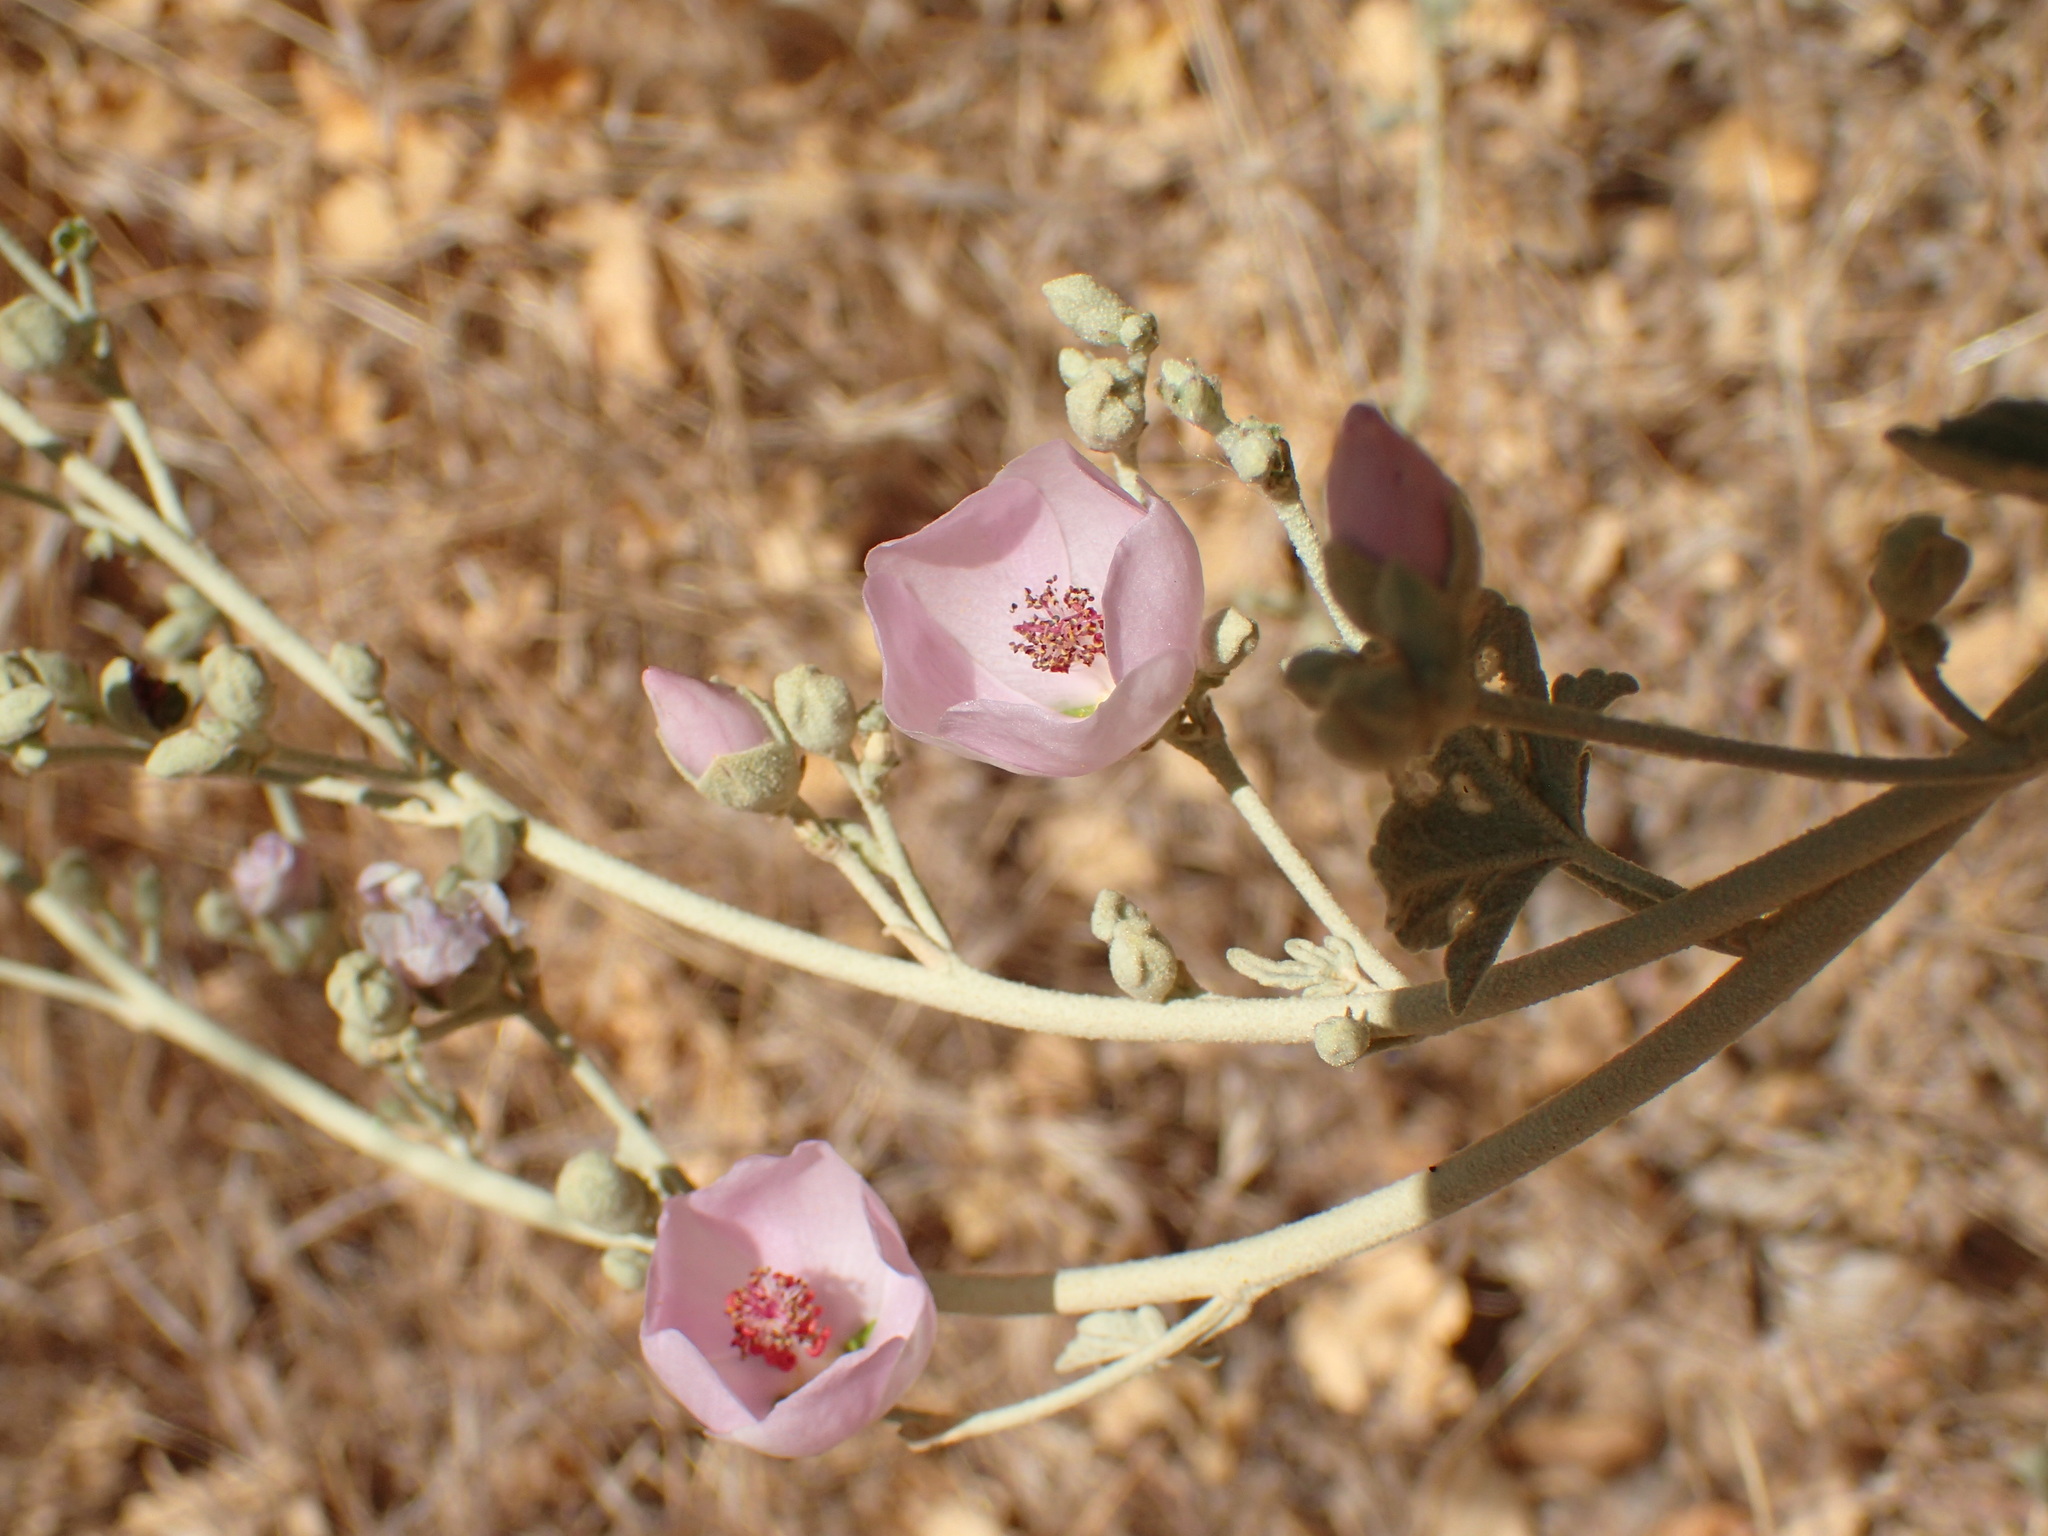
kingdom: Plantae
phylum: Tracheophyta
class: Magnoliopsida
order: Malvales
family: Malvaceae
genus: Malacothamnus
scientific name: Malacothamnus fasciculatus
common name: Sant cruz island bush-mallow
